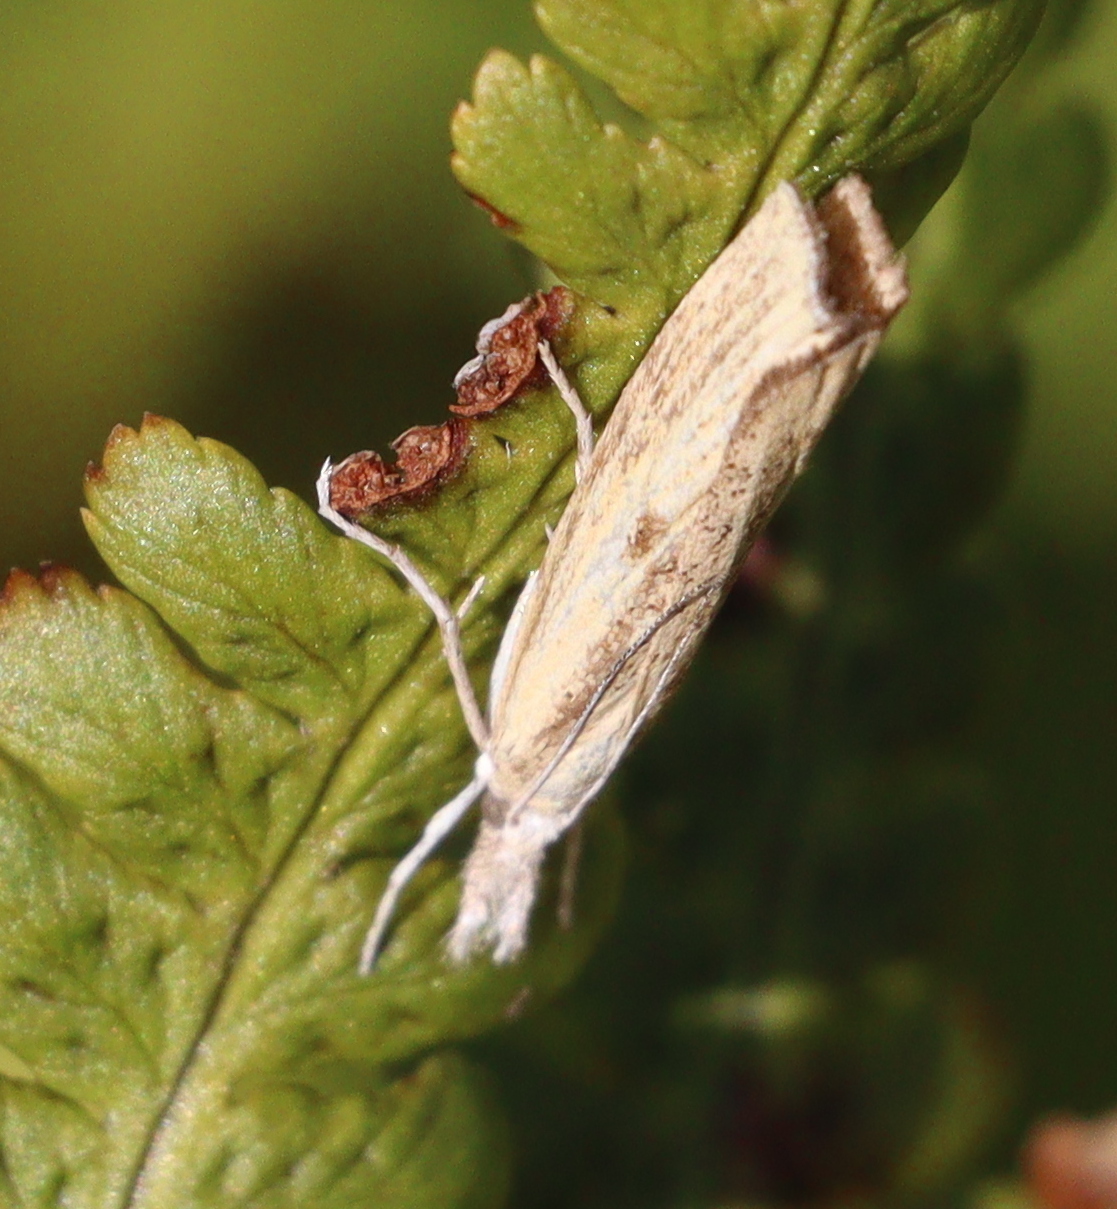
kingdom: Animalia
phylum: Arthropoda
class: Insecta
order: Lepidoptera
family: Crambidae
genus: Agriphila
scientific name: Agriphila inquinatella
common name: Barred grass-veneer
